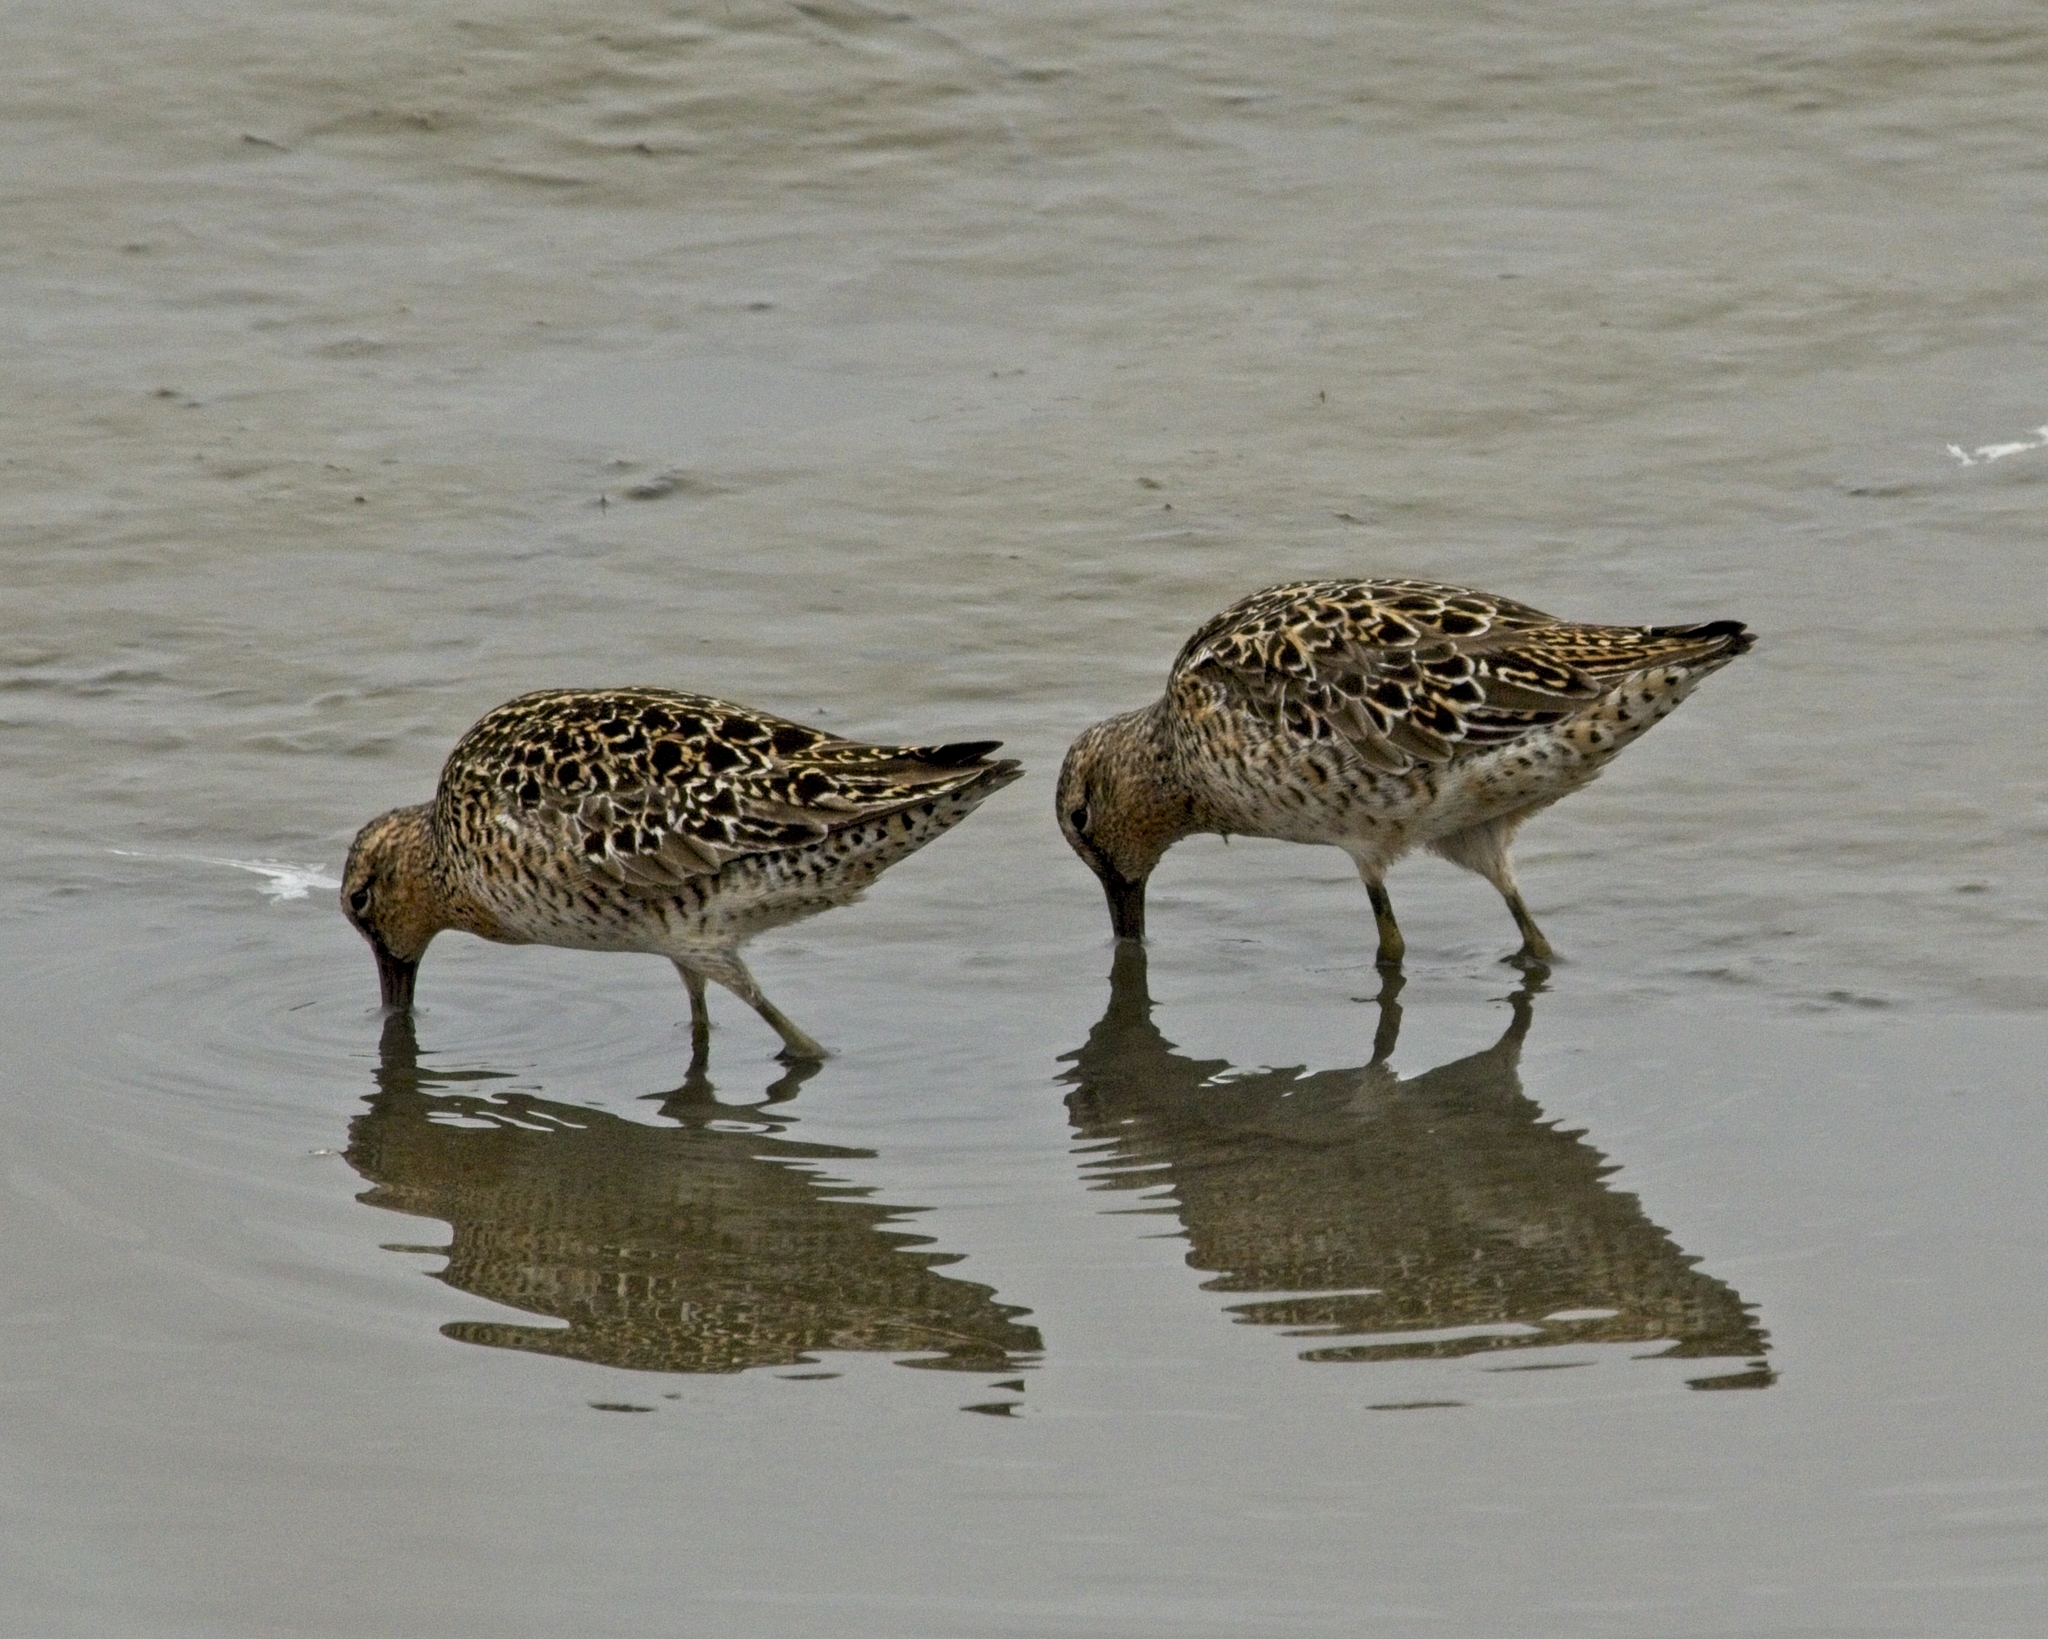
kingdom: Animalia
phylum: Chordata
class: Aves
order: Charadriiformes
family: Scolopacidae
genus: Limnodromus
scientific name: Limnodromus griseus
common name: Short-billed dowitcher
